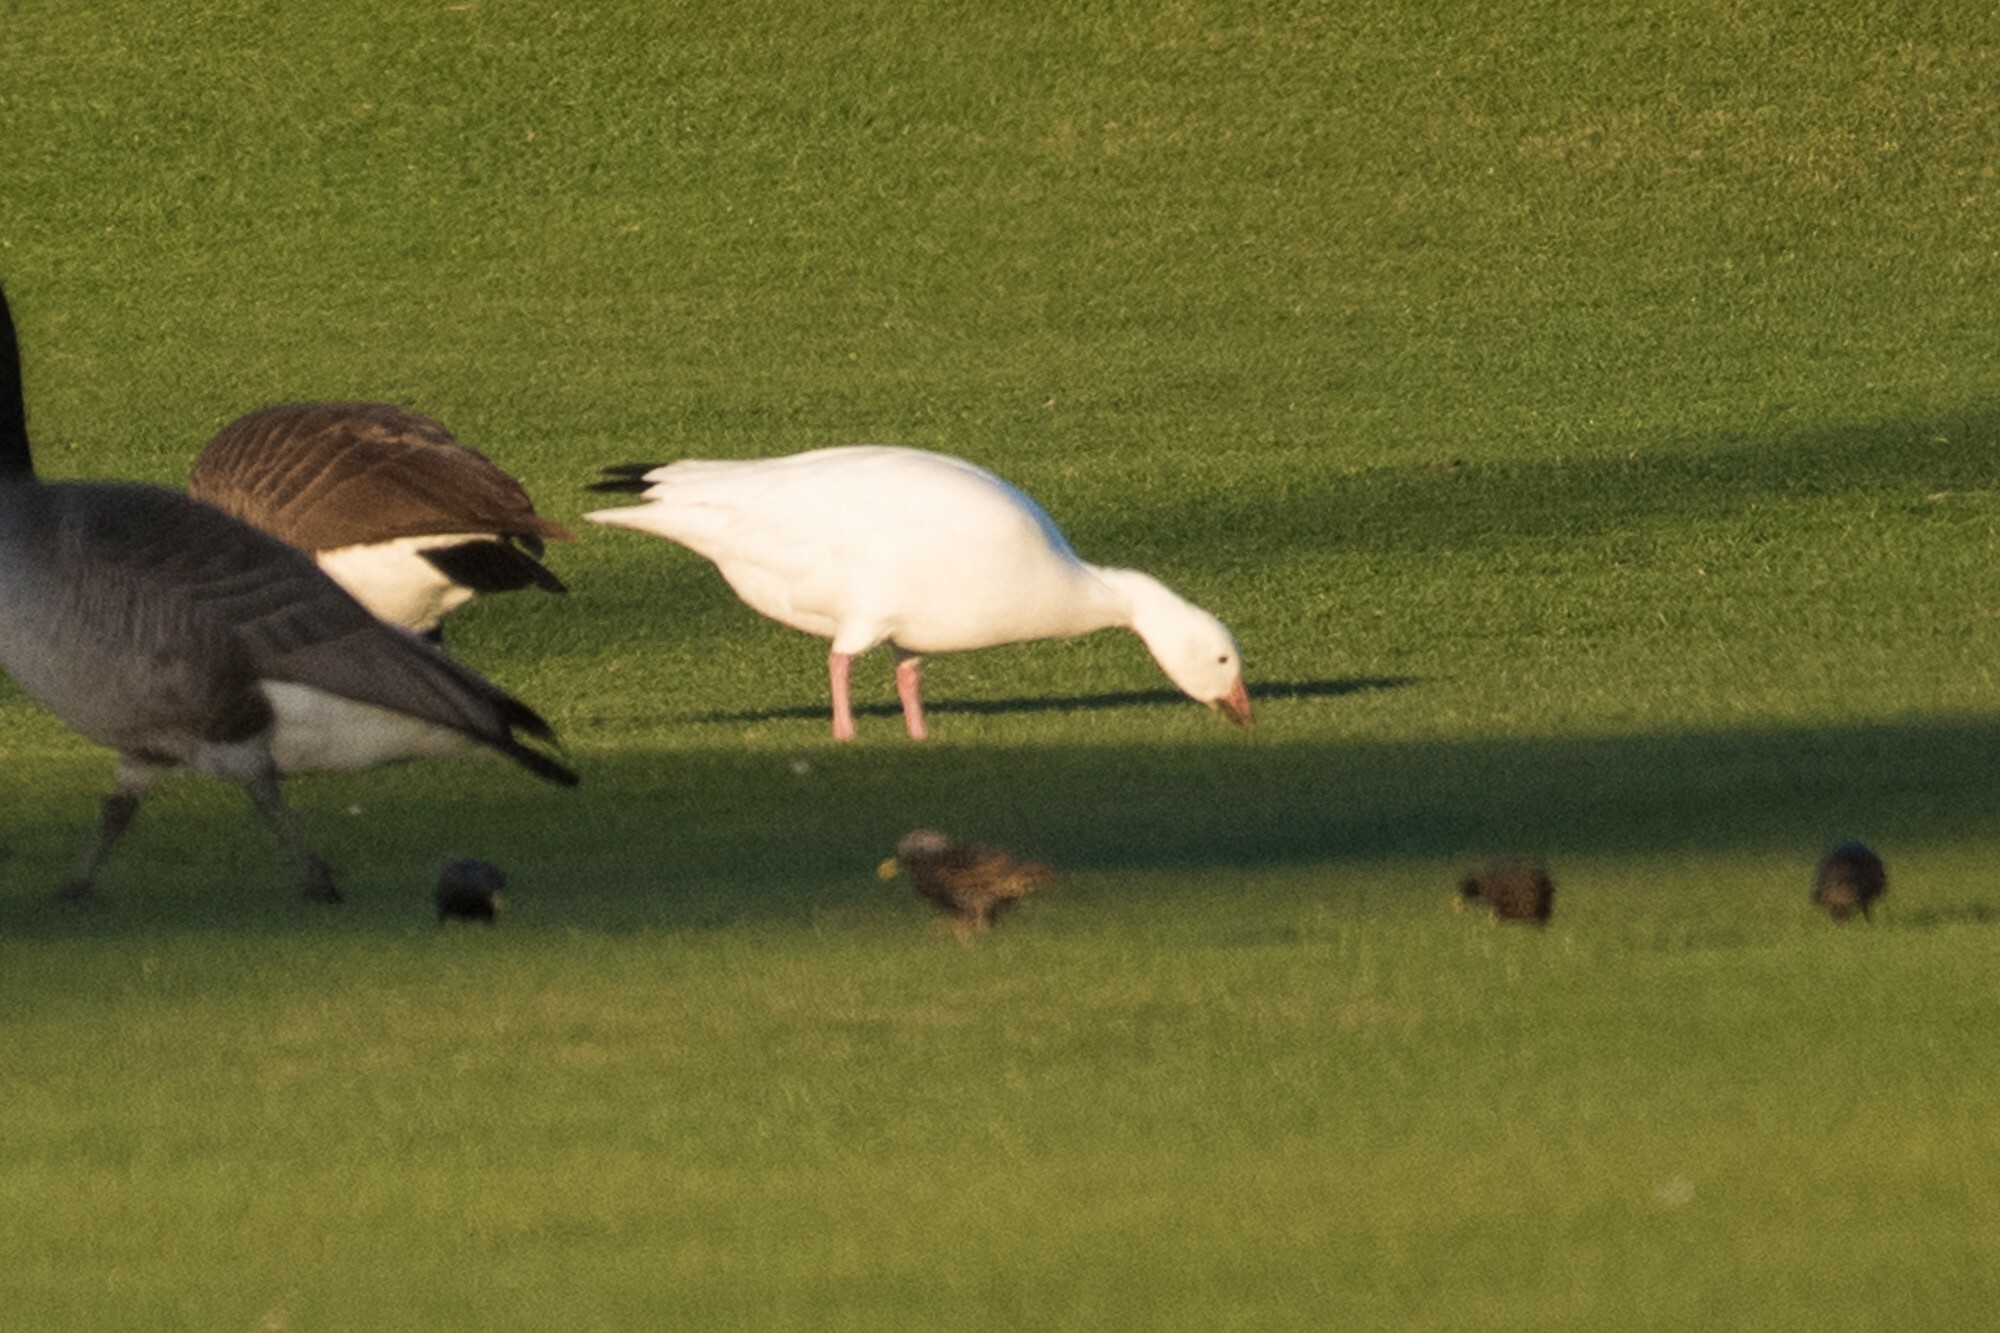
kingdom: Animalia
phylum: Chordata
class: Aves
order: Anseriformes
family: Anatidae
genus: Anser
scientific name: Anser caerulescens
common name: Snow goose
